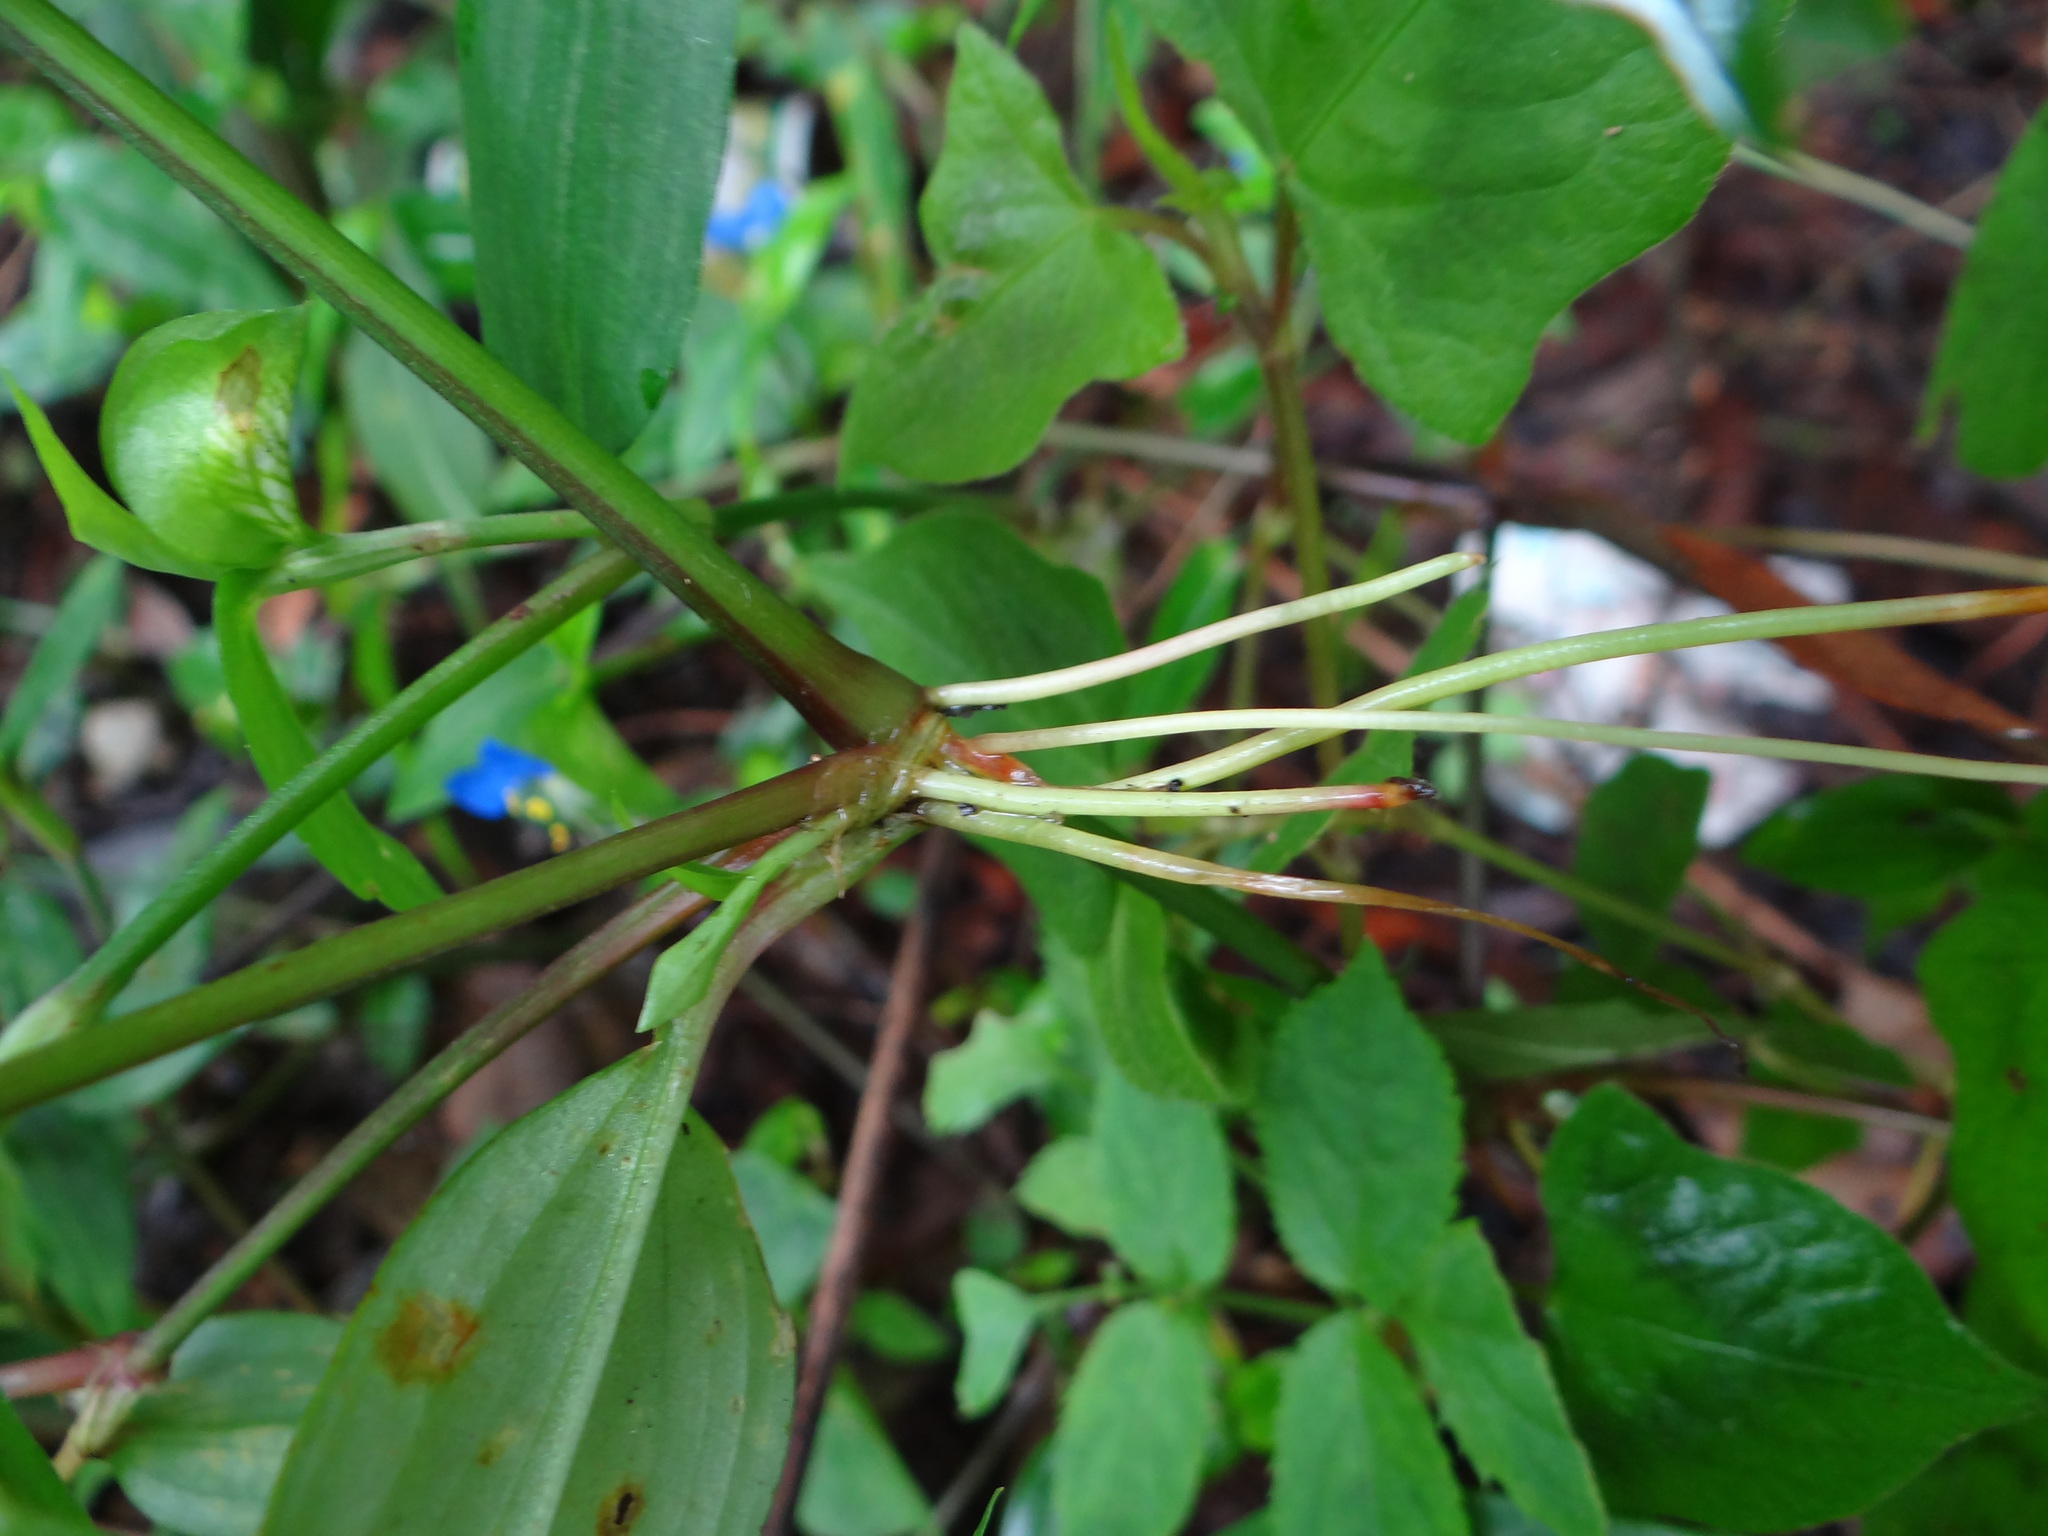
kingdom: Plantae
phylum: Tracheophyta
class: Liliopsida
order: Commelinales
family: Commelinaceae
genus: Commelina
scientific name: Commelina communis
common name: Asiatic dayflower
